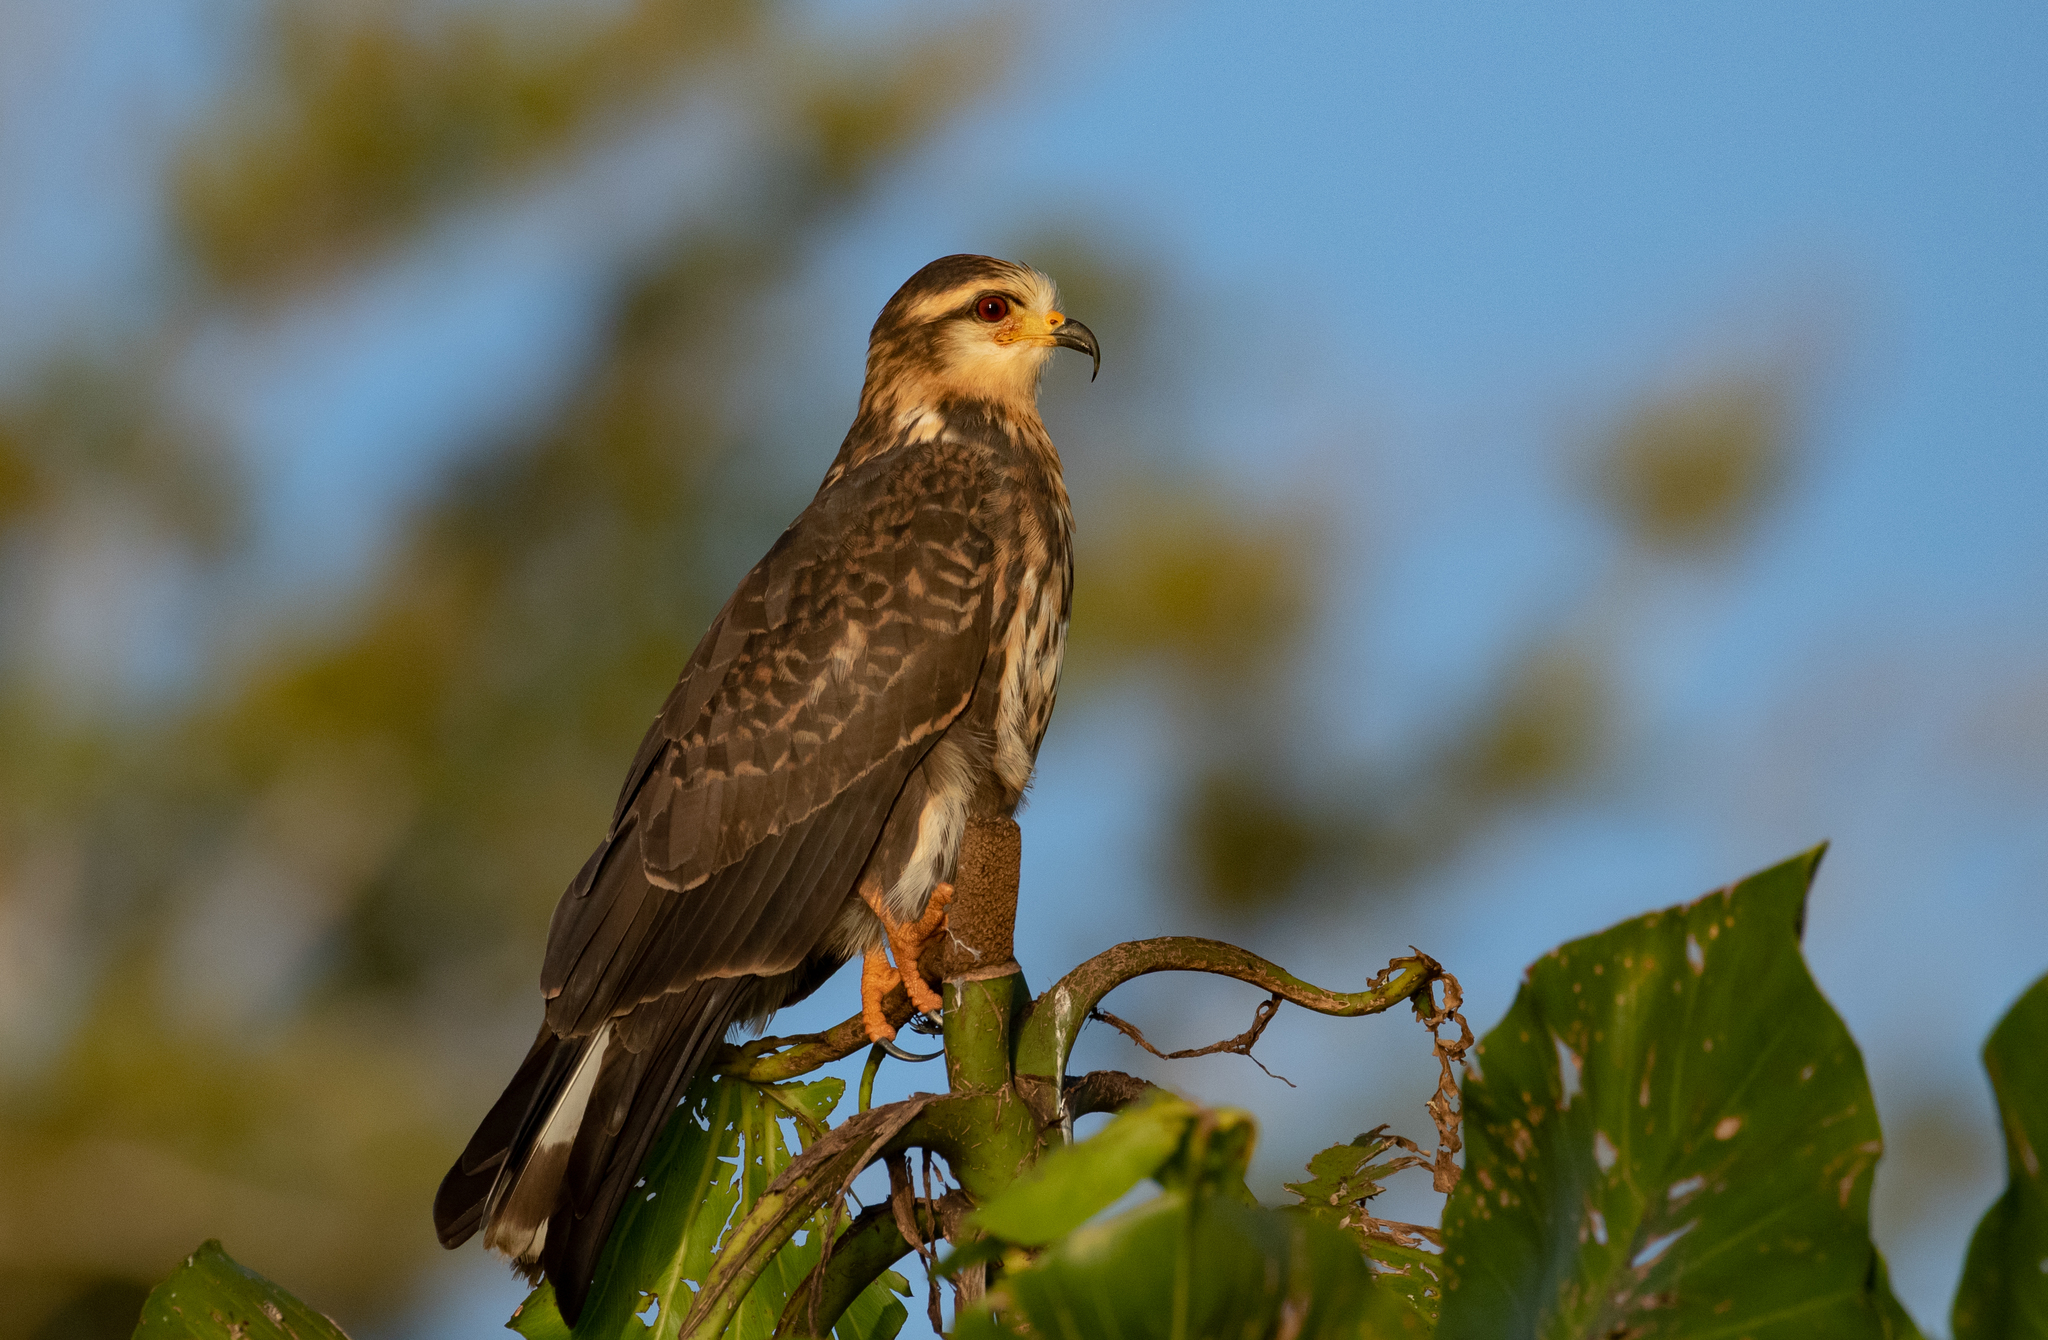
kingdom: Animalia
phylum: Chordata
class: Aves
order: Accipitriformes
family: Accipitridae
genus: Rostrhamus
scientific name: Rostrhamus sociabilis
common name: Snail kite
